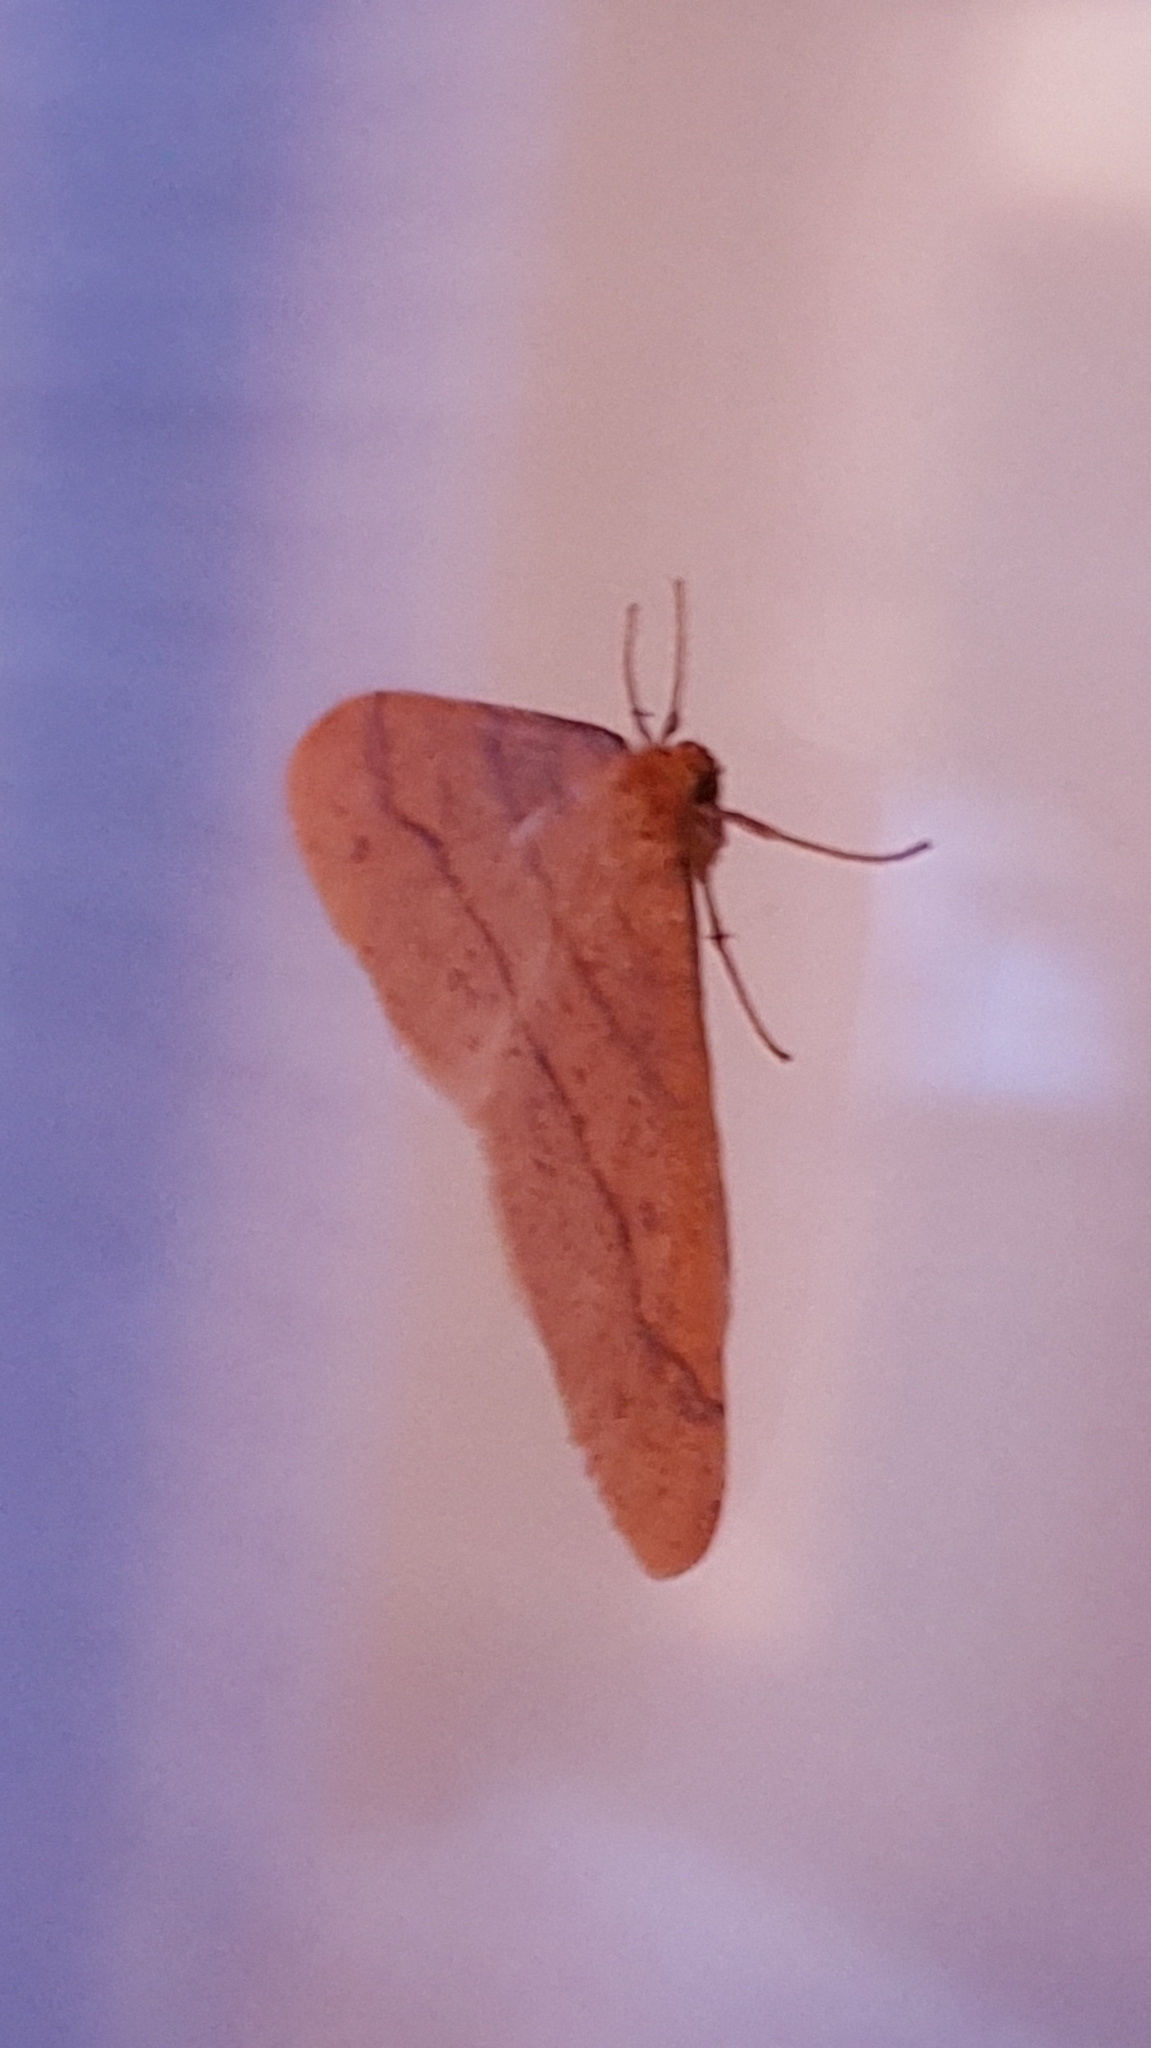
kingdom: Animalia
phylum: Arthropoda
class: Insecta
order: Lepidoptera
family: Geometridae
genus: Agriopis
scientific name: Agriopis aurantiaria
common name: Scarce umber
